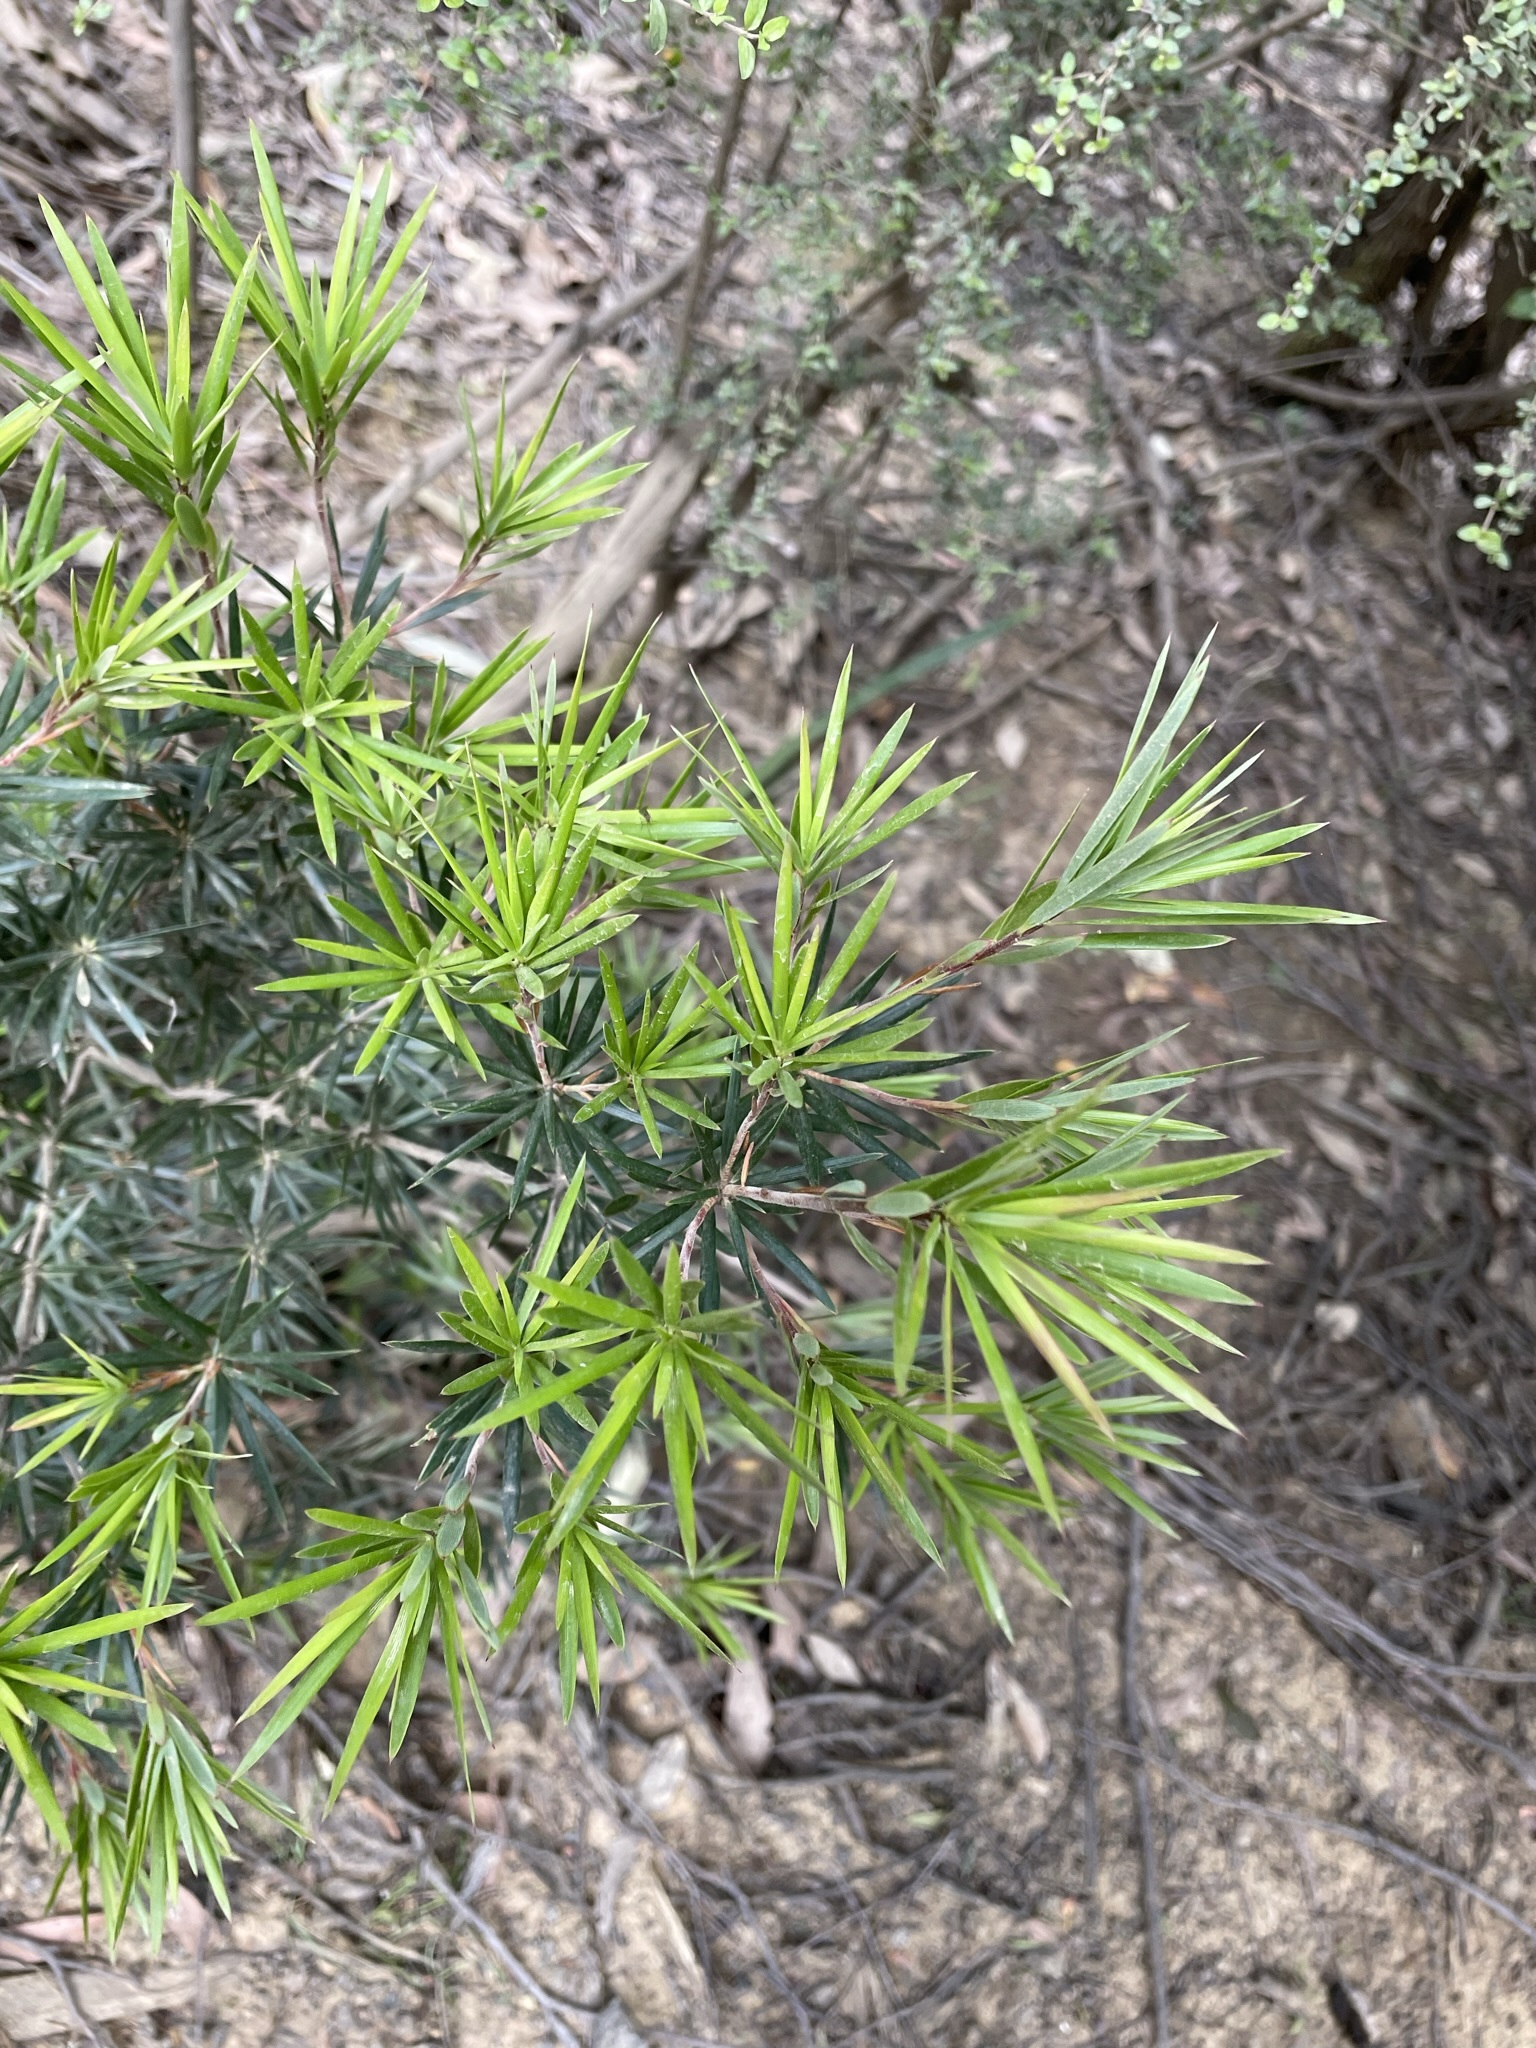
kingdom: Plantae
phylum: Tracheophyta
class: Magnoliopsida
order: Ericales
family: Ericaceae
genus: Cyathodes
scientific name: Cyathodes glauca
